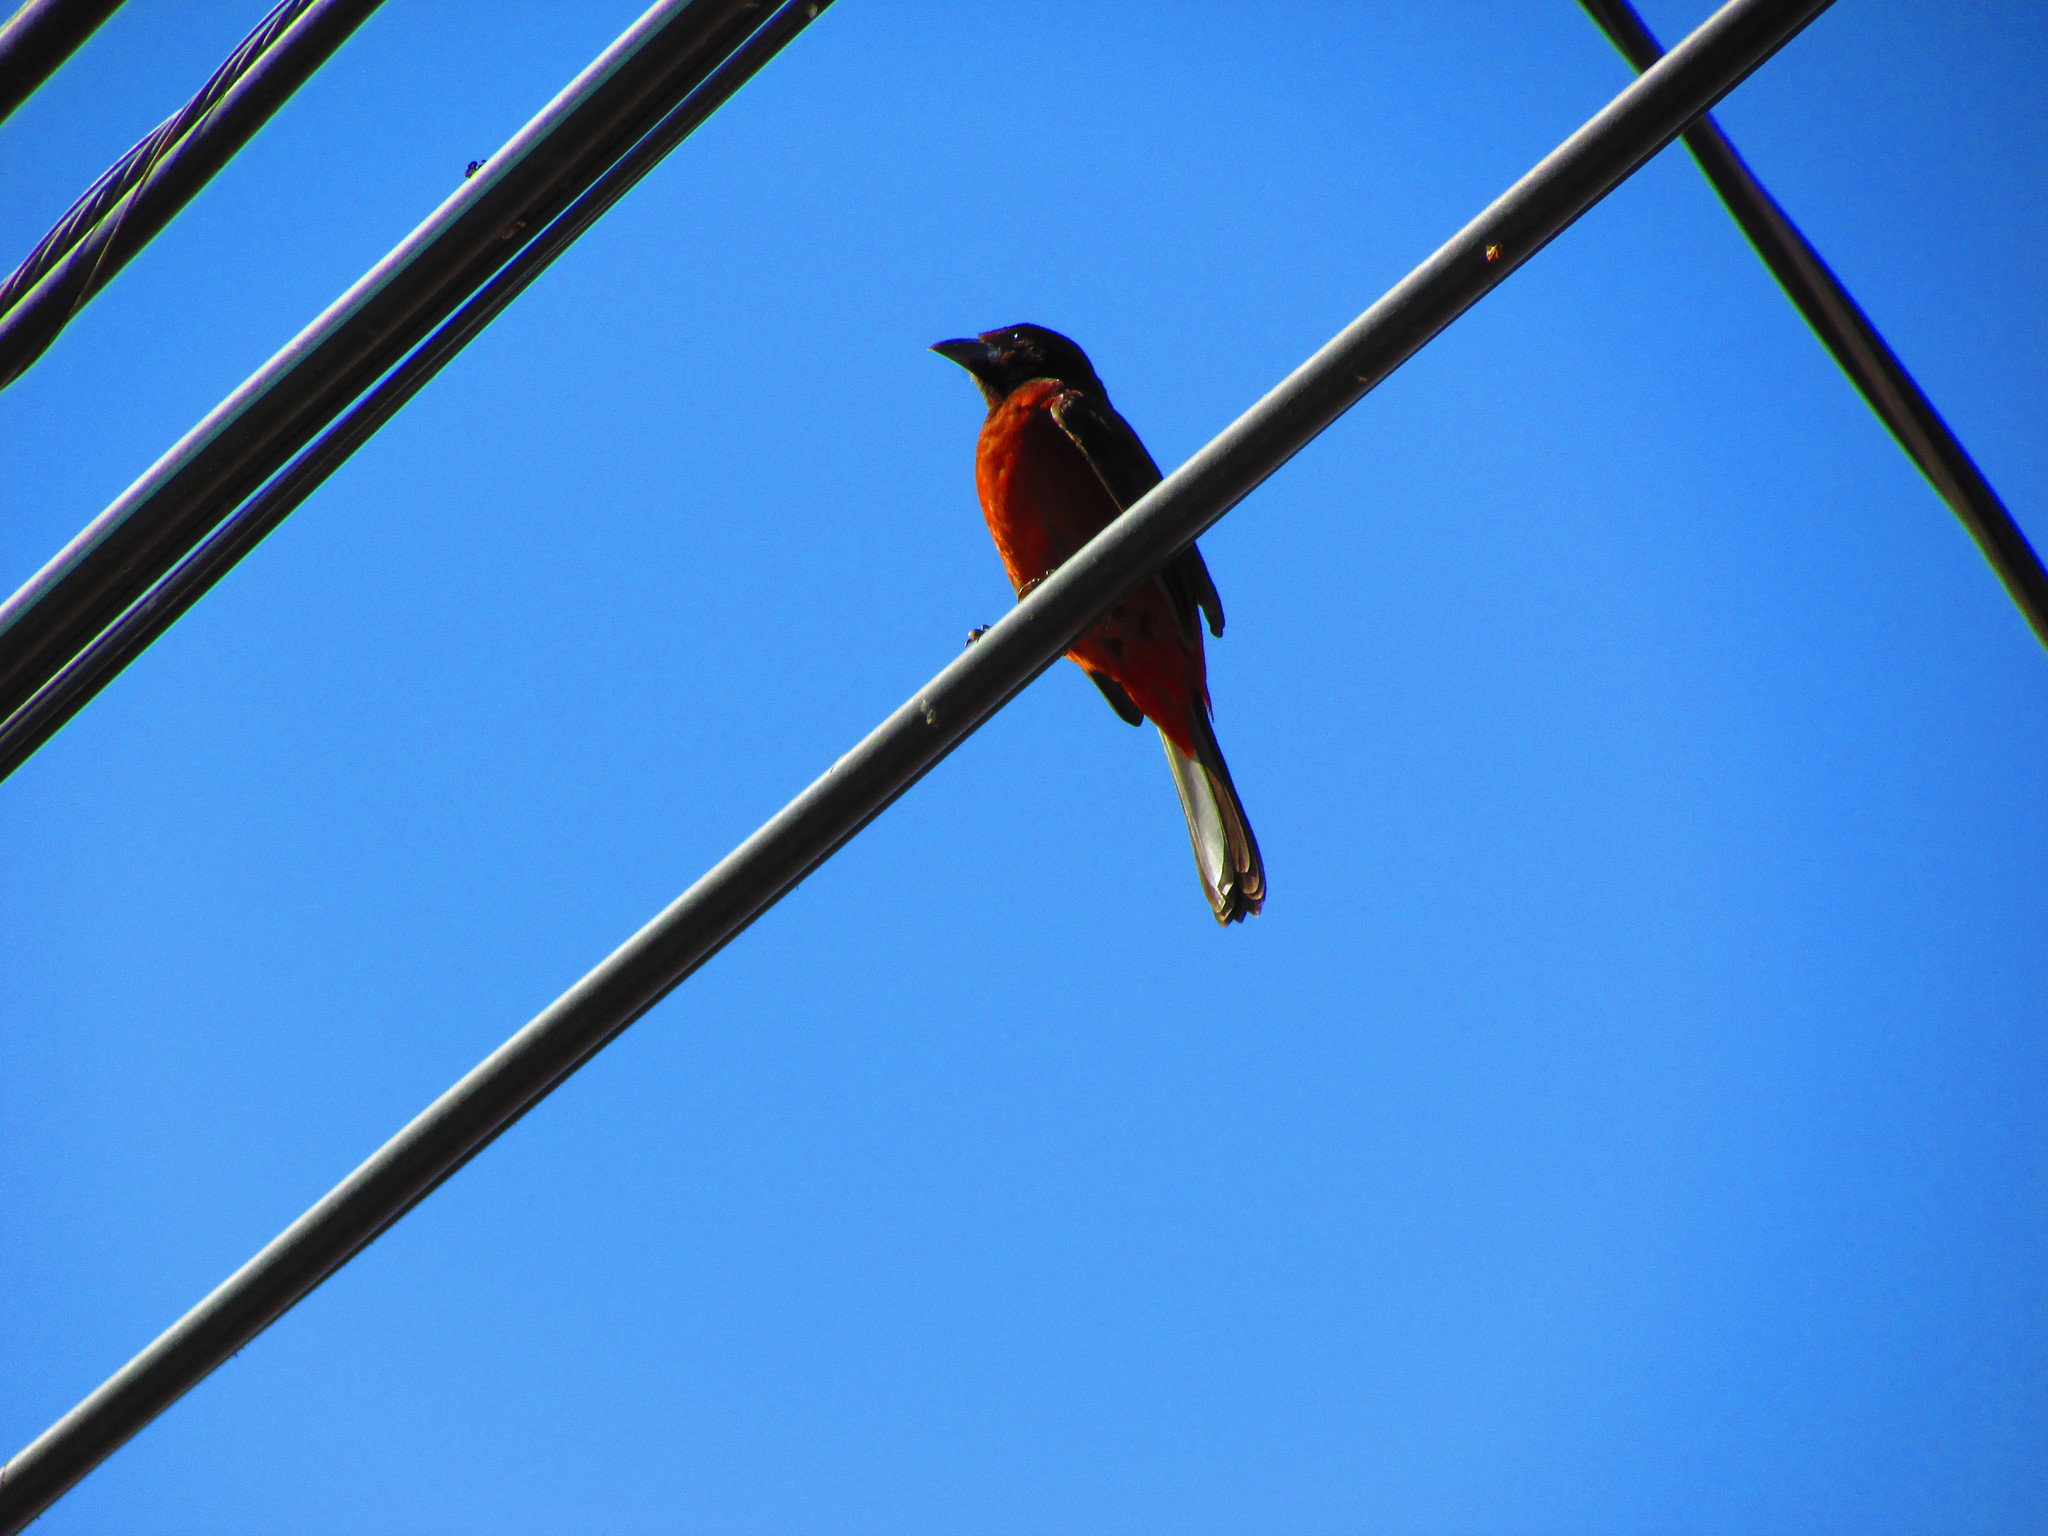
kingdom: Animalia
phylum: Chordata
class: Aves
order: Passeriformes
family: Thraupidae
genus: Ramphocelus
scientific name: Ramphocelus dimidiatus
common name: Crimson-backed tanager
